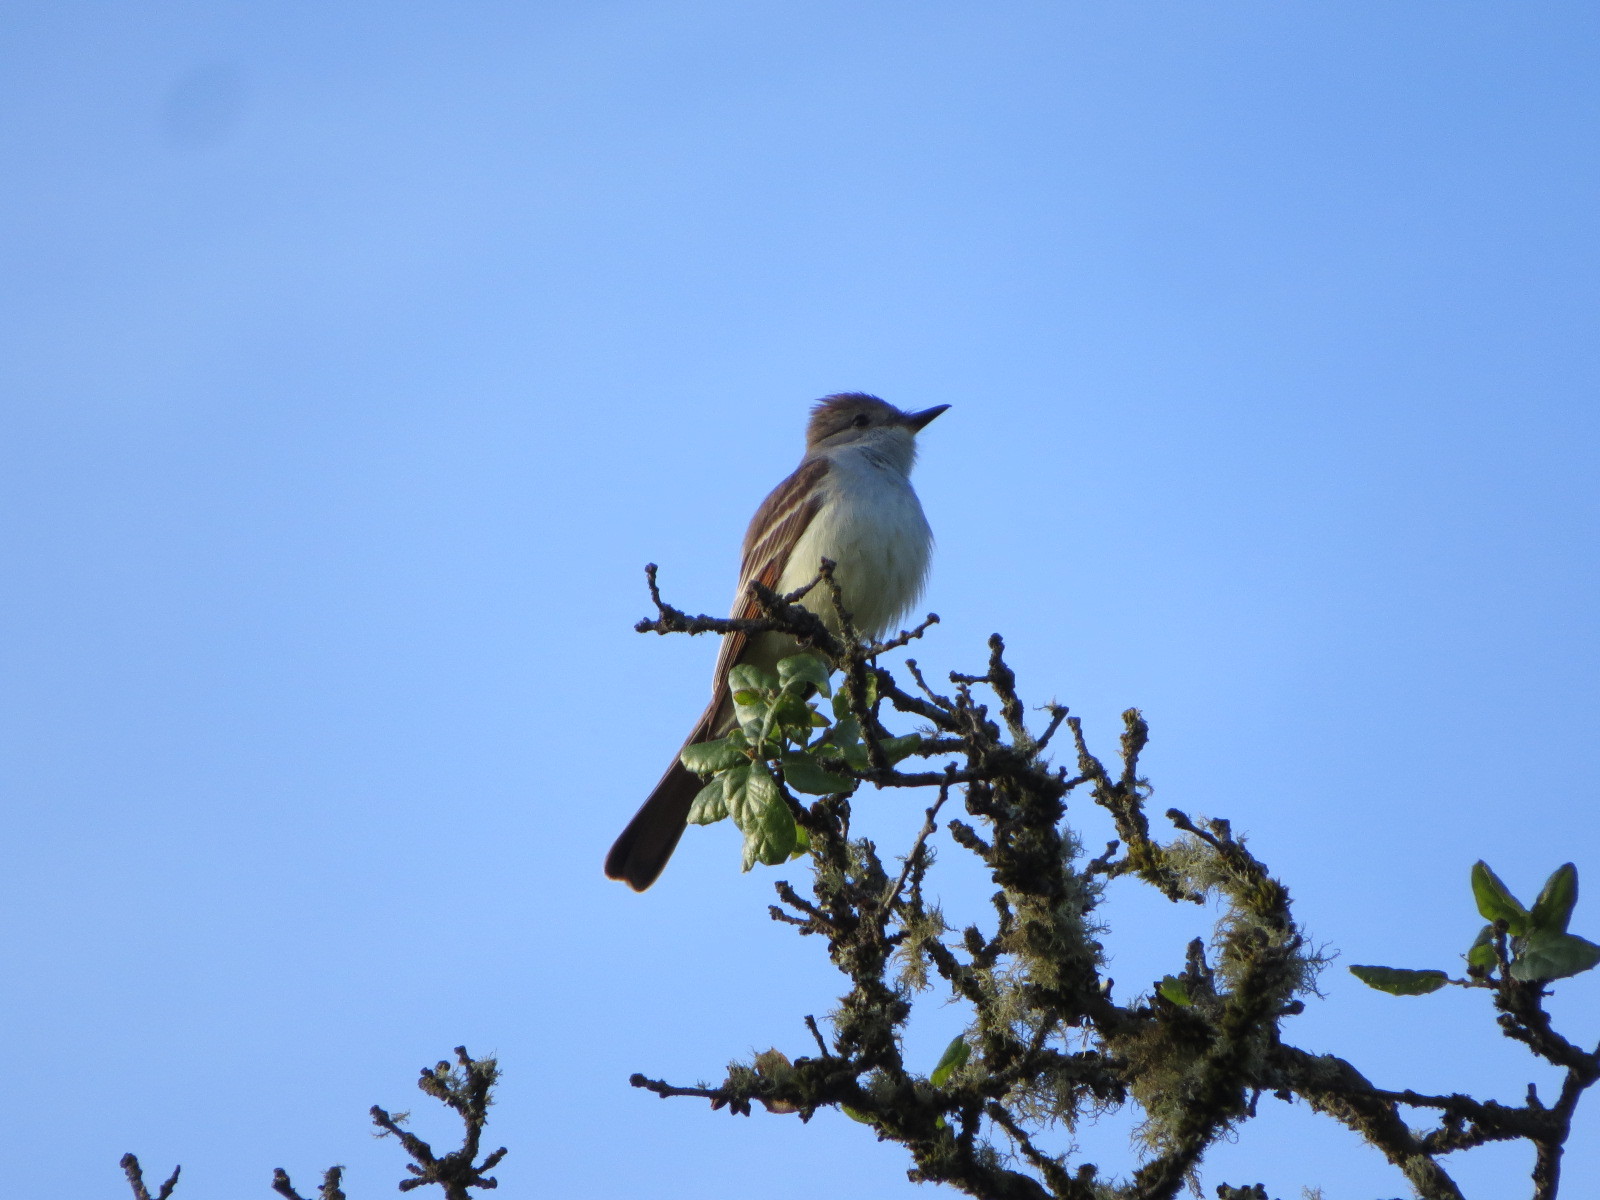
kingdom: Animalia
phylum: Chordata
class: Aves
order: Passeriformes
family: Tyrannidae
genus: Myiarchus
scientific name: Myiarchus cinerascens
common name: Ash-throated flycatcher
